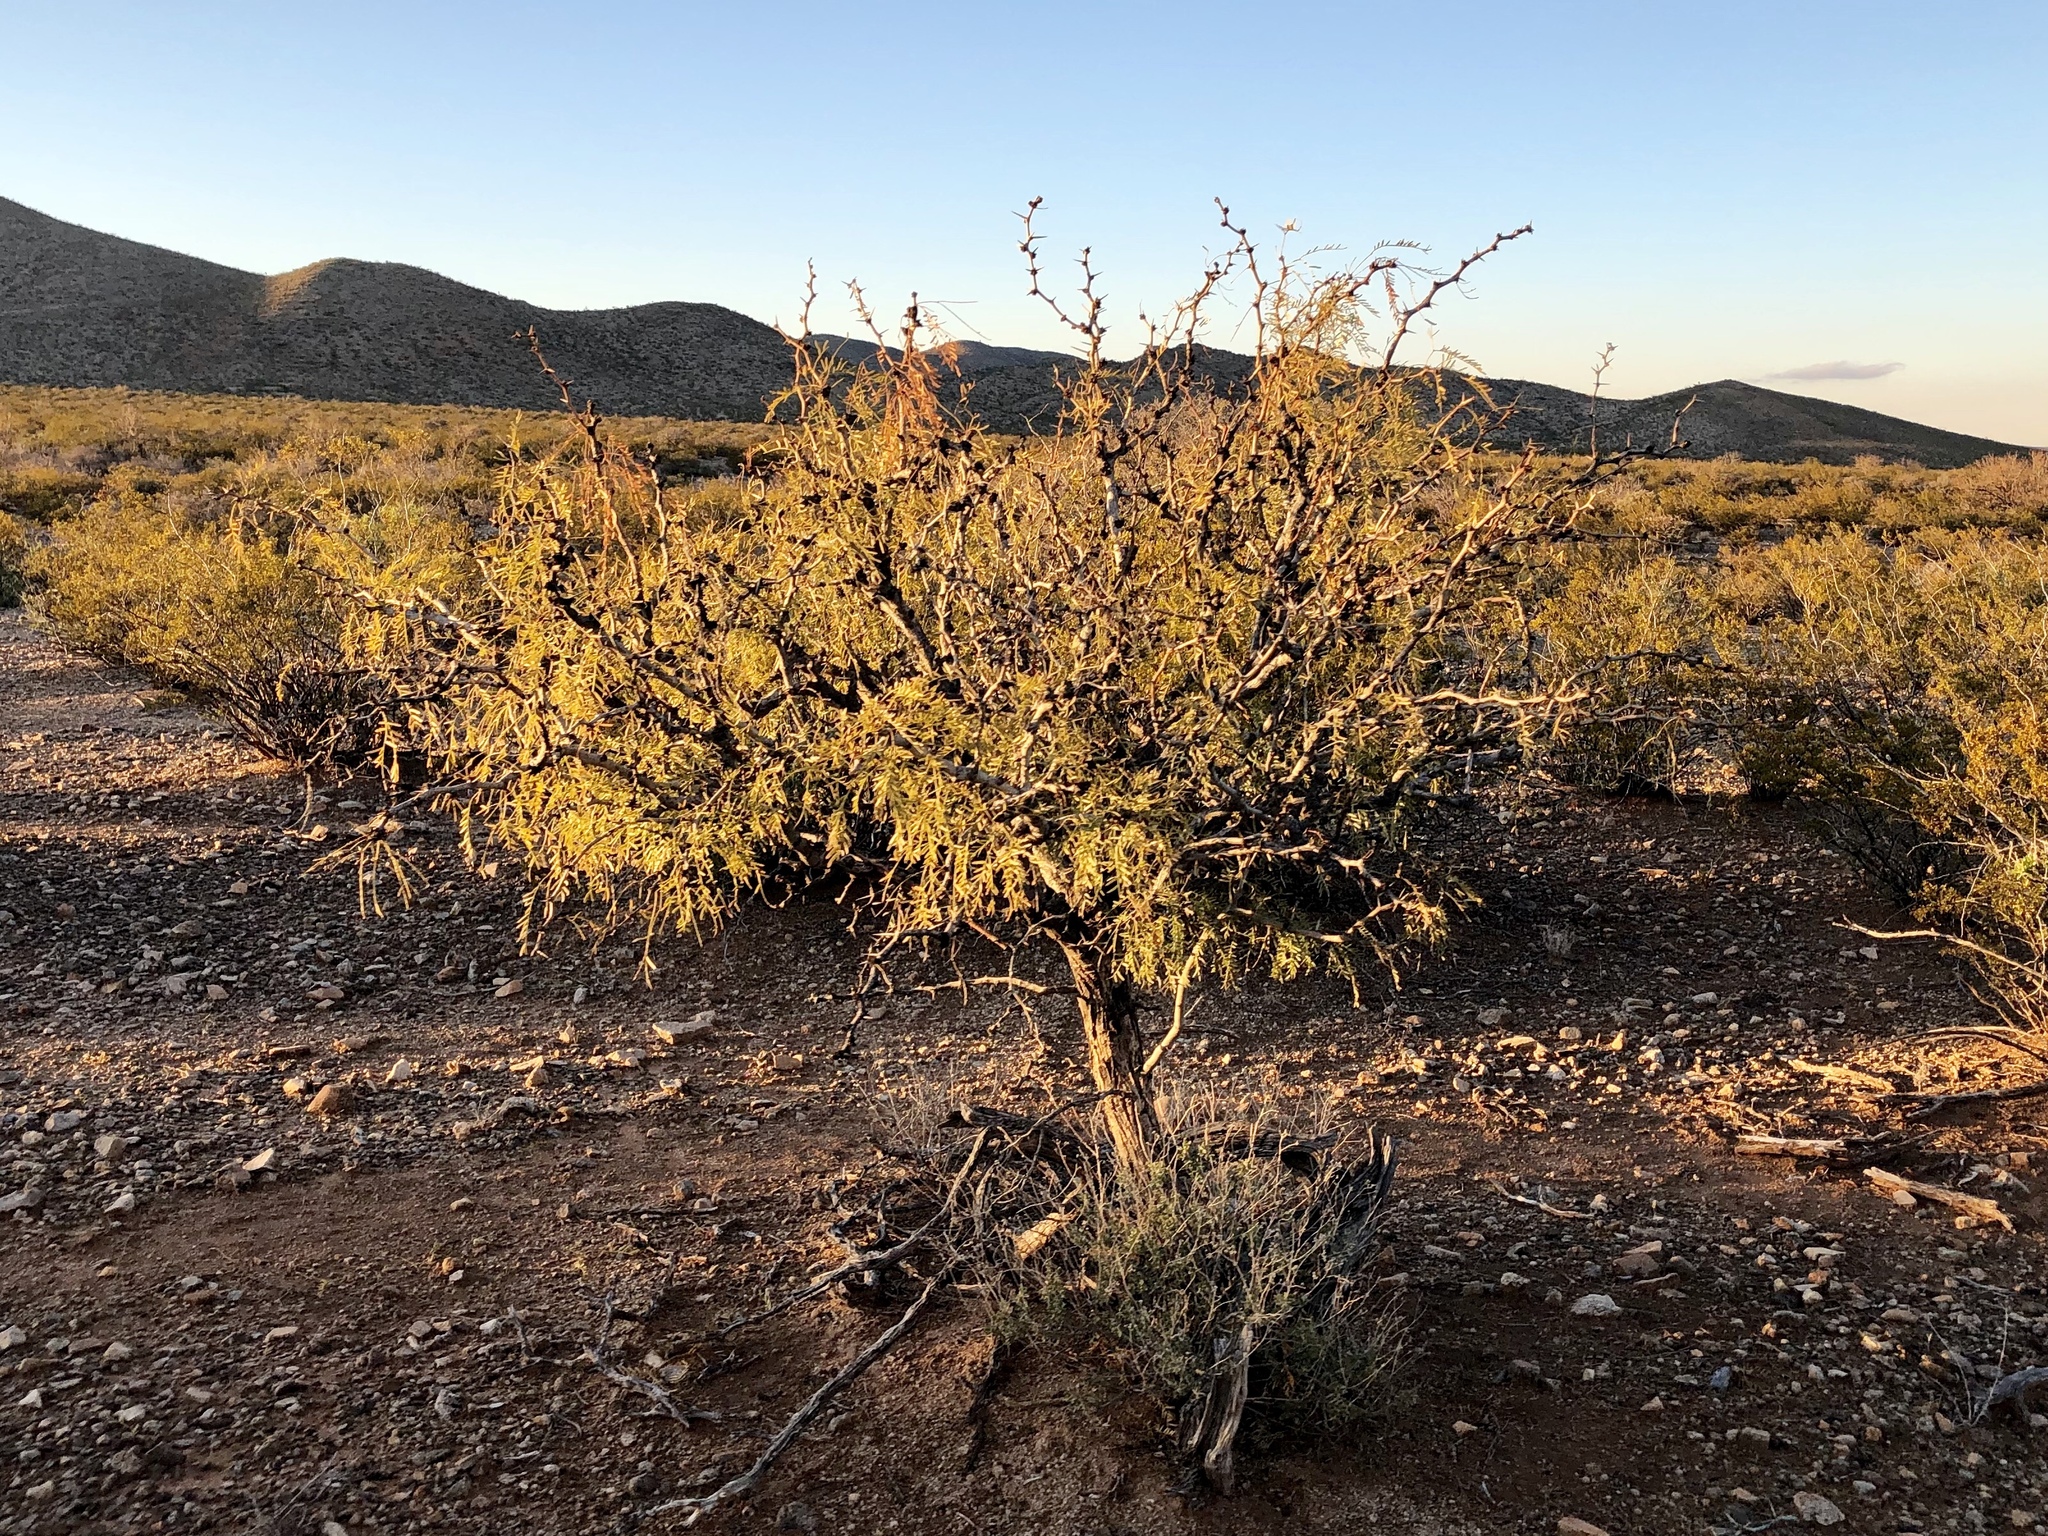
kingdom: Plantae
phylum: Tracheophyta
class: Magnoliopsida
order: Fabales
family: Fabaceae
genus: Prosopis
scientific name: Prosopis glandulosa
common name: Honey mesquite
